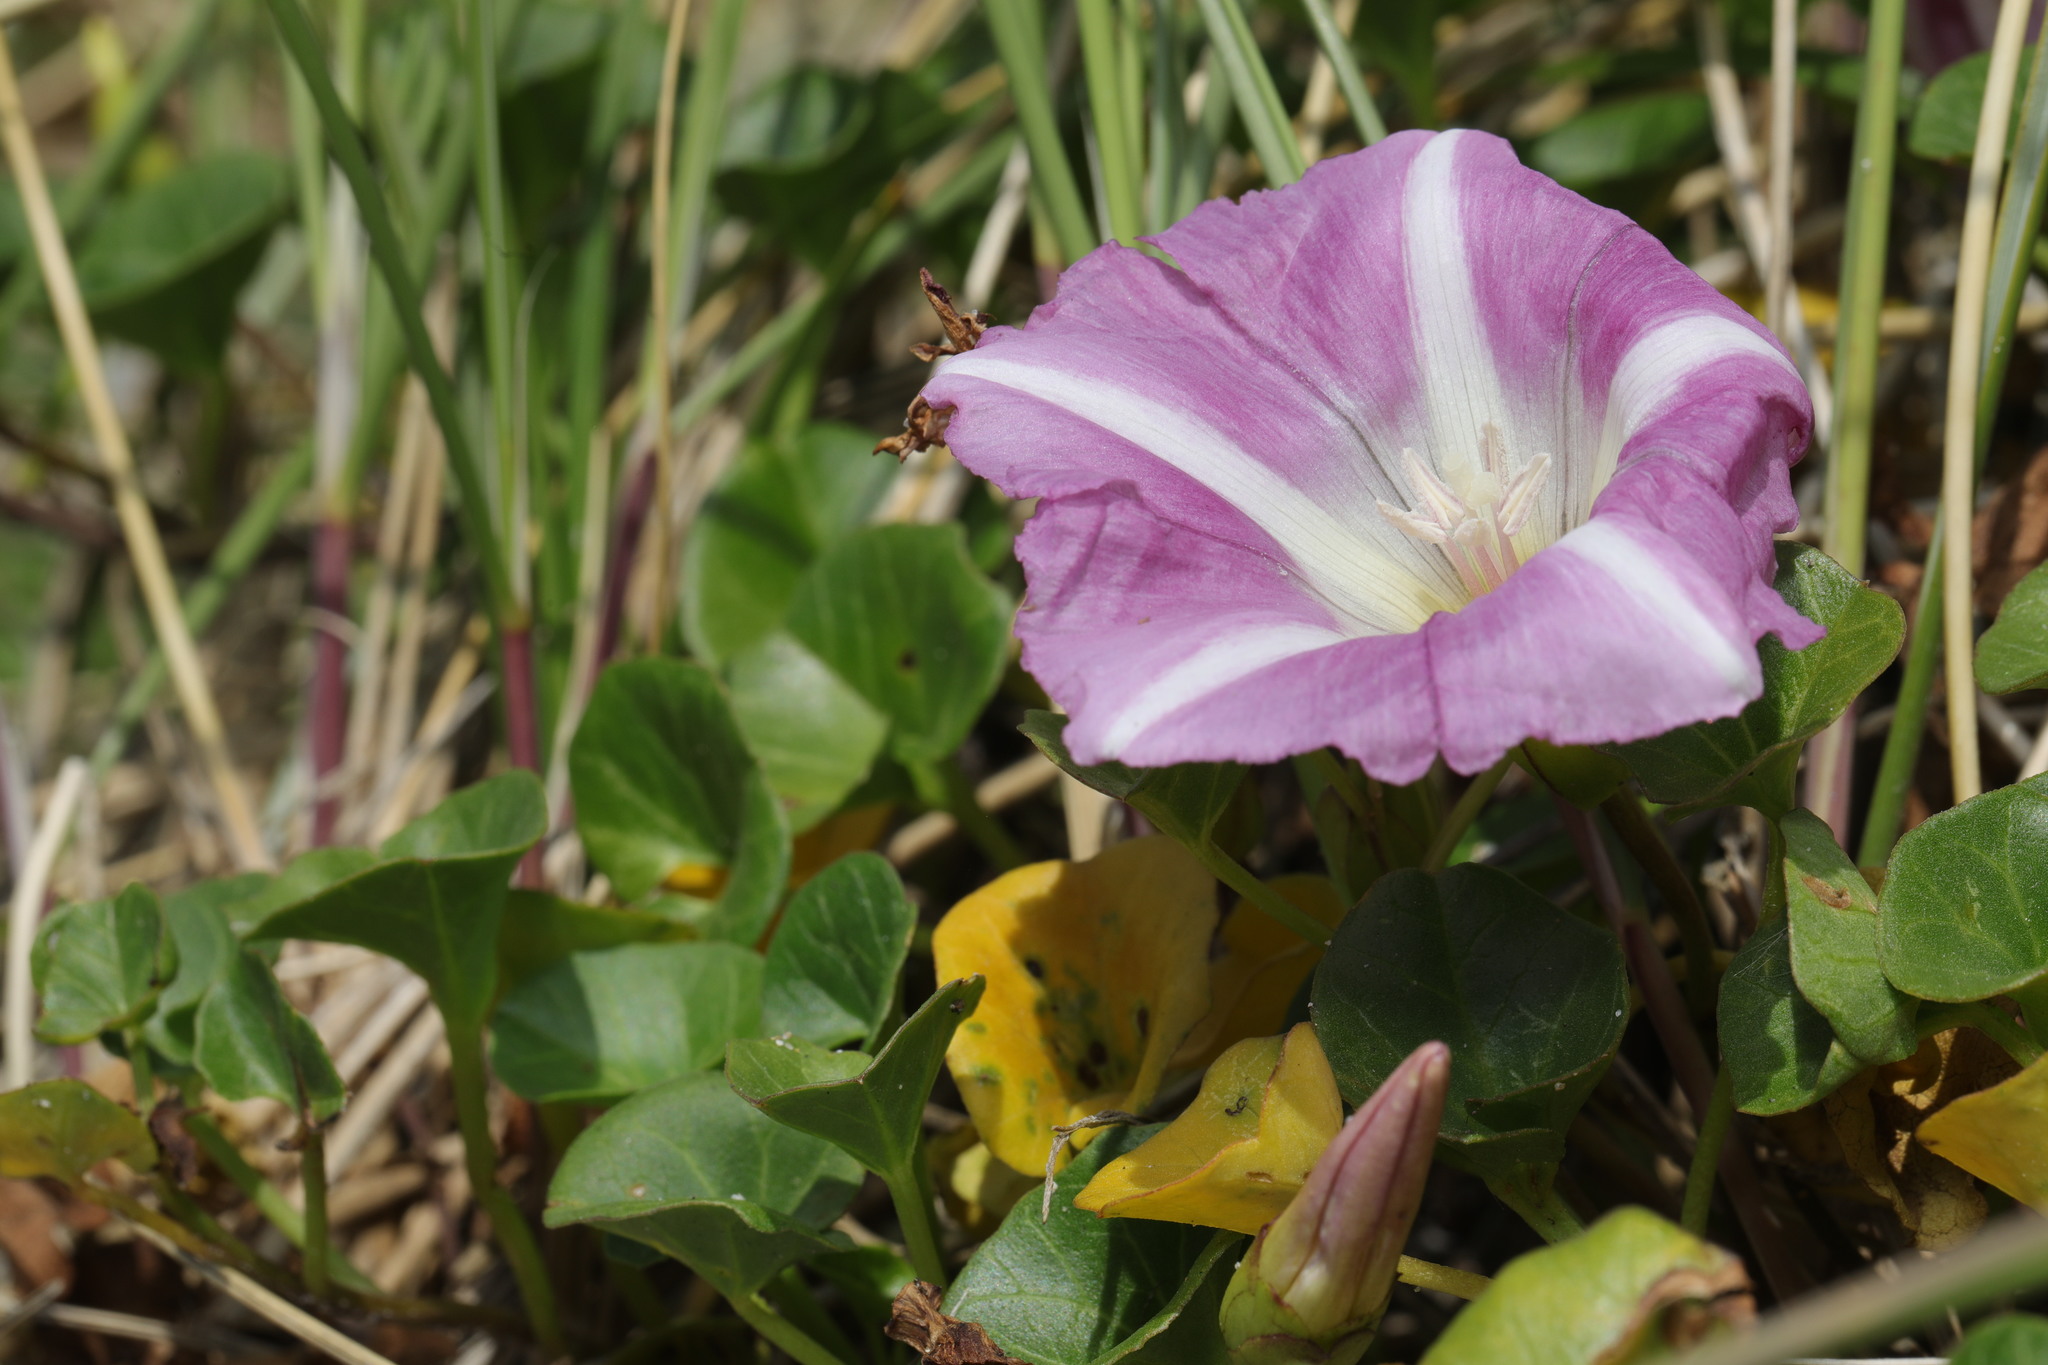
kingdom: Plantae
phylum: Tracheophyta
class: Magnoliopsida
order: Solanales
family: Convolvulaceae
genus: Calystegia
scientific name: Calystegia soldanella
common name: Sea bindweed
